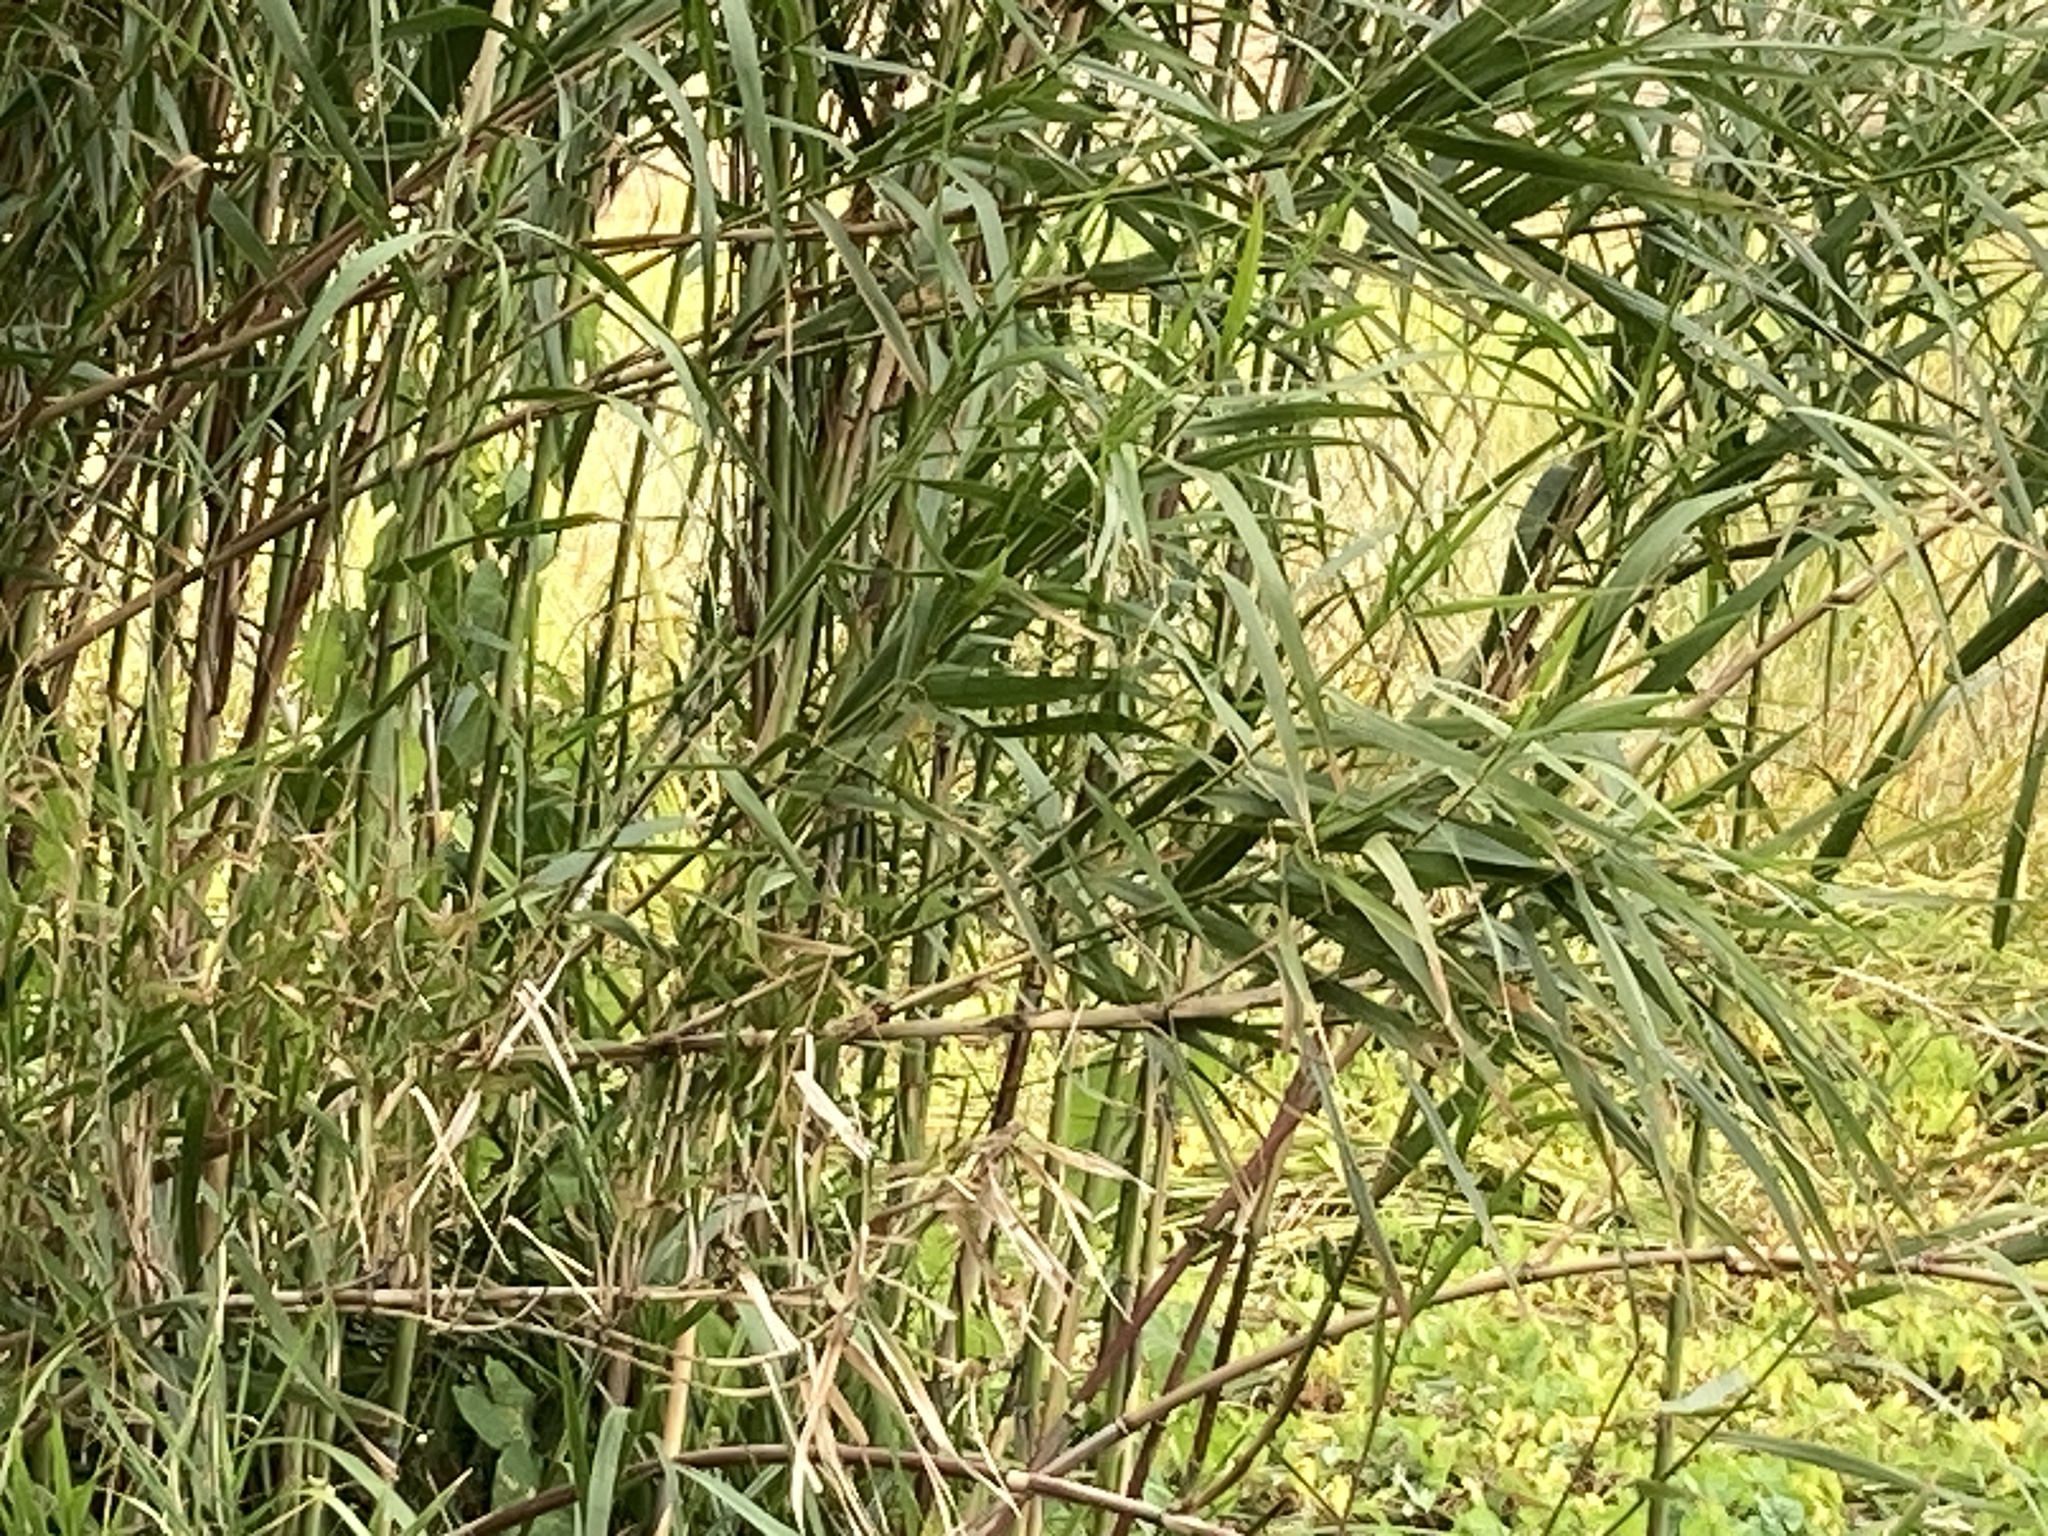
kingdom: Plantae
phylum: Tracheophyta
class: Liliopsida
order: Poales
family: Poaceae
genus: Arundo
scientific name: Arundo donax
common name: Giant reed
